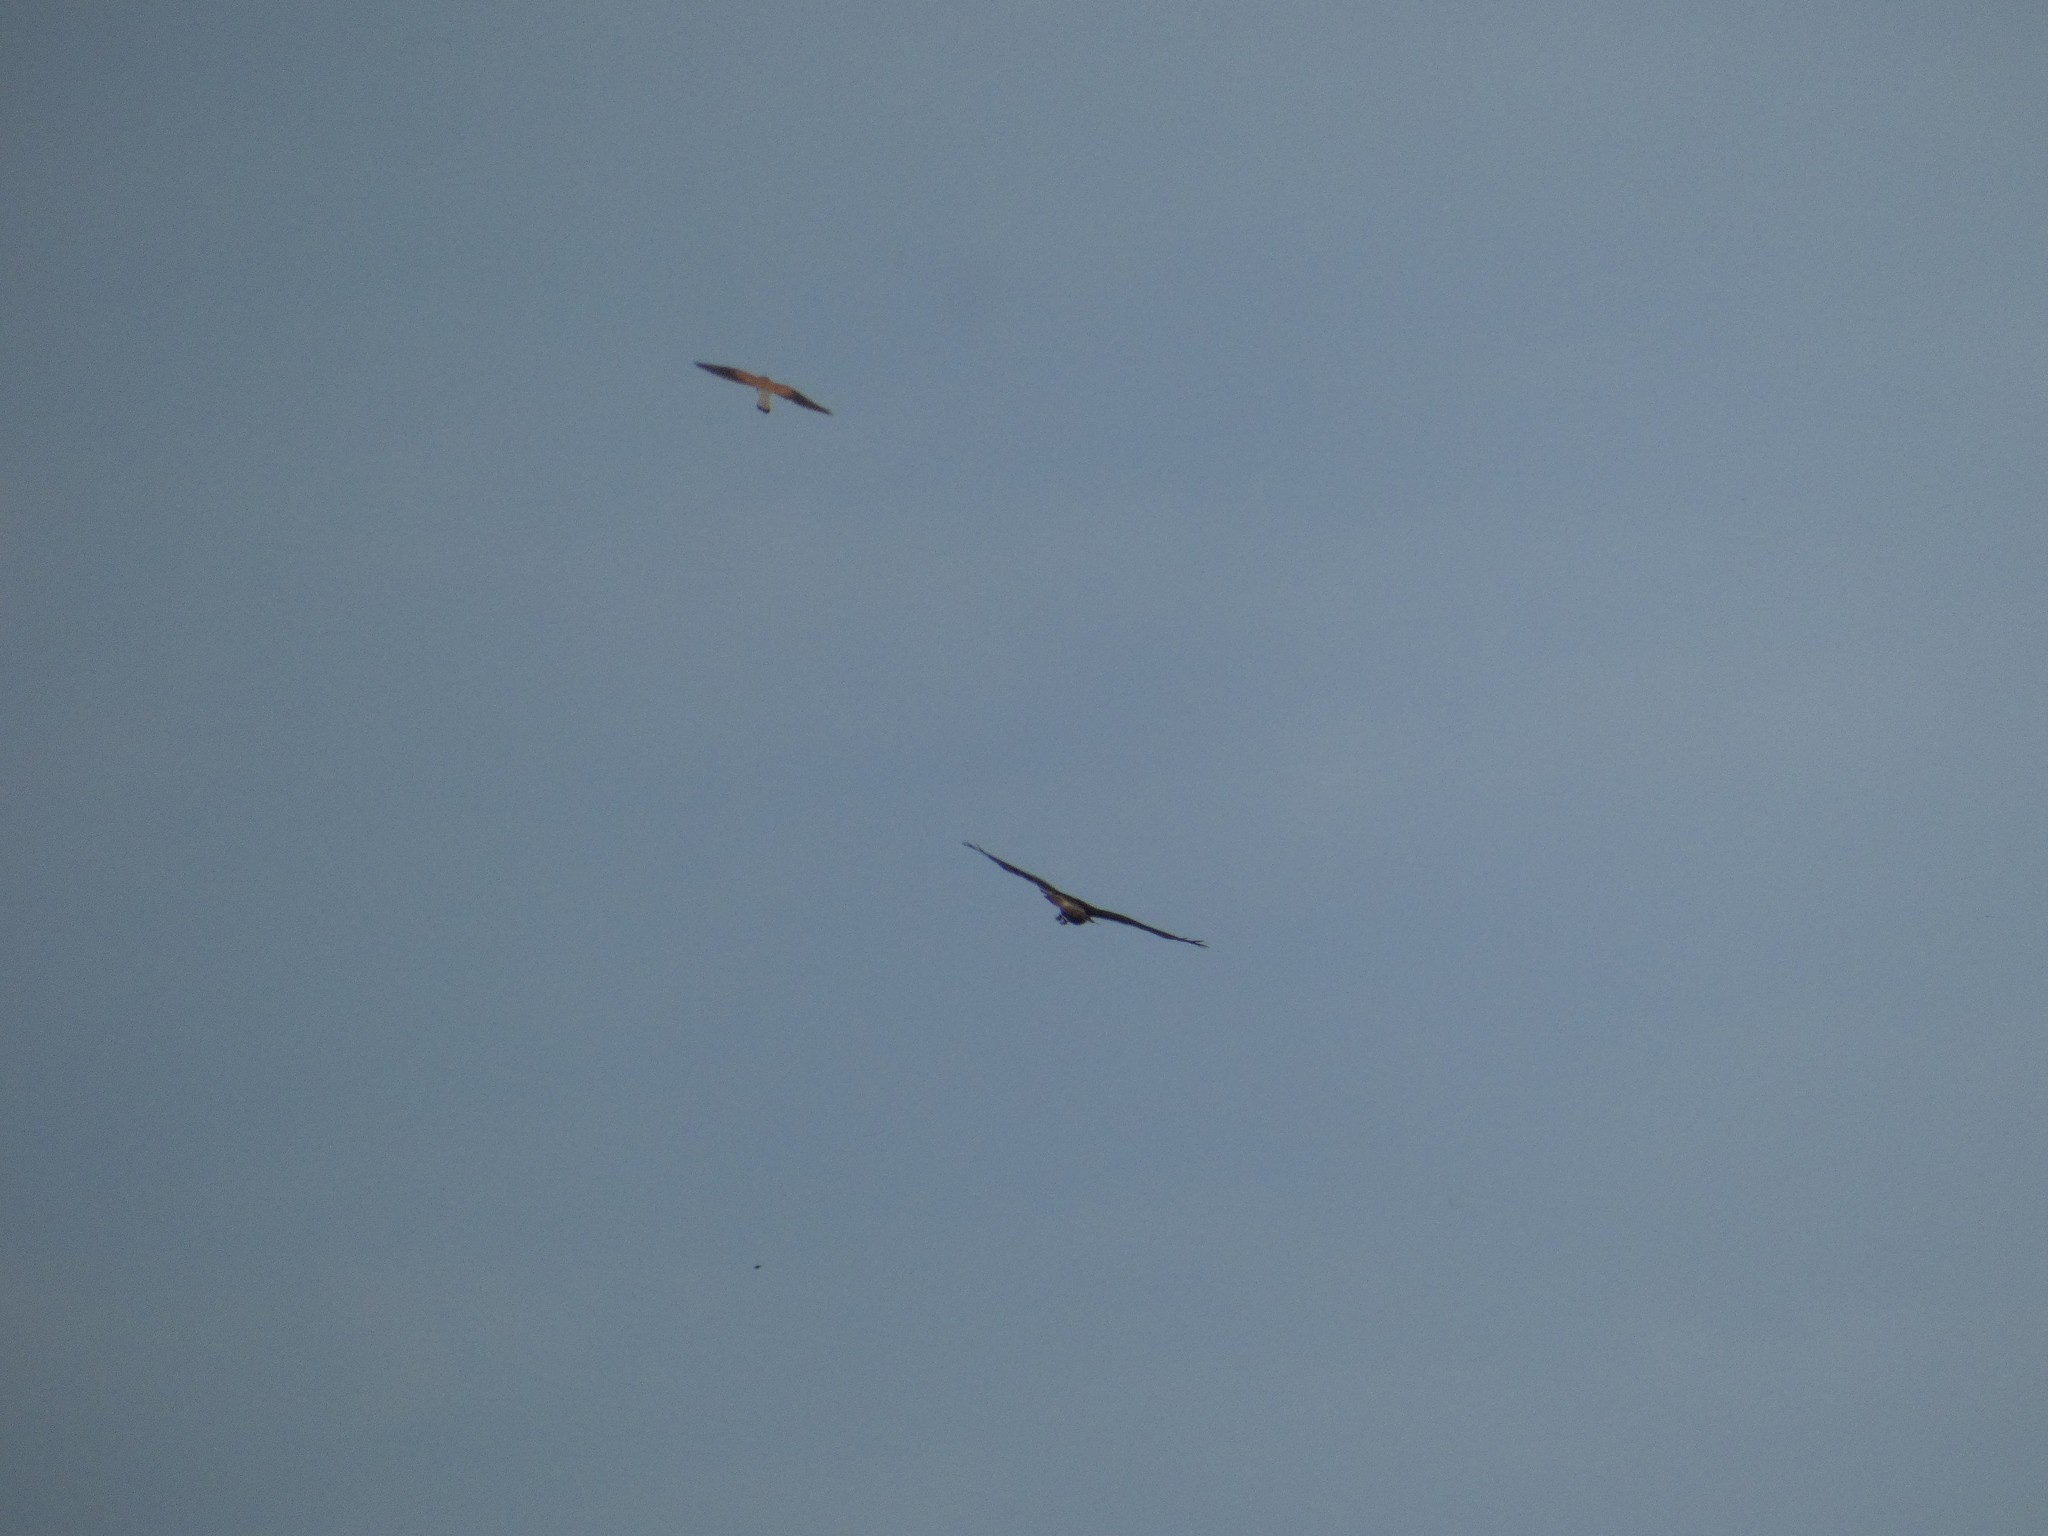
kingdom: Animalia
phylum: Chordata
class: Aves
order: Falconiformes
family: Falconidae
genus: Falco
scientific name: Falco tinnunculus
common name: Common kestrel
